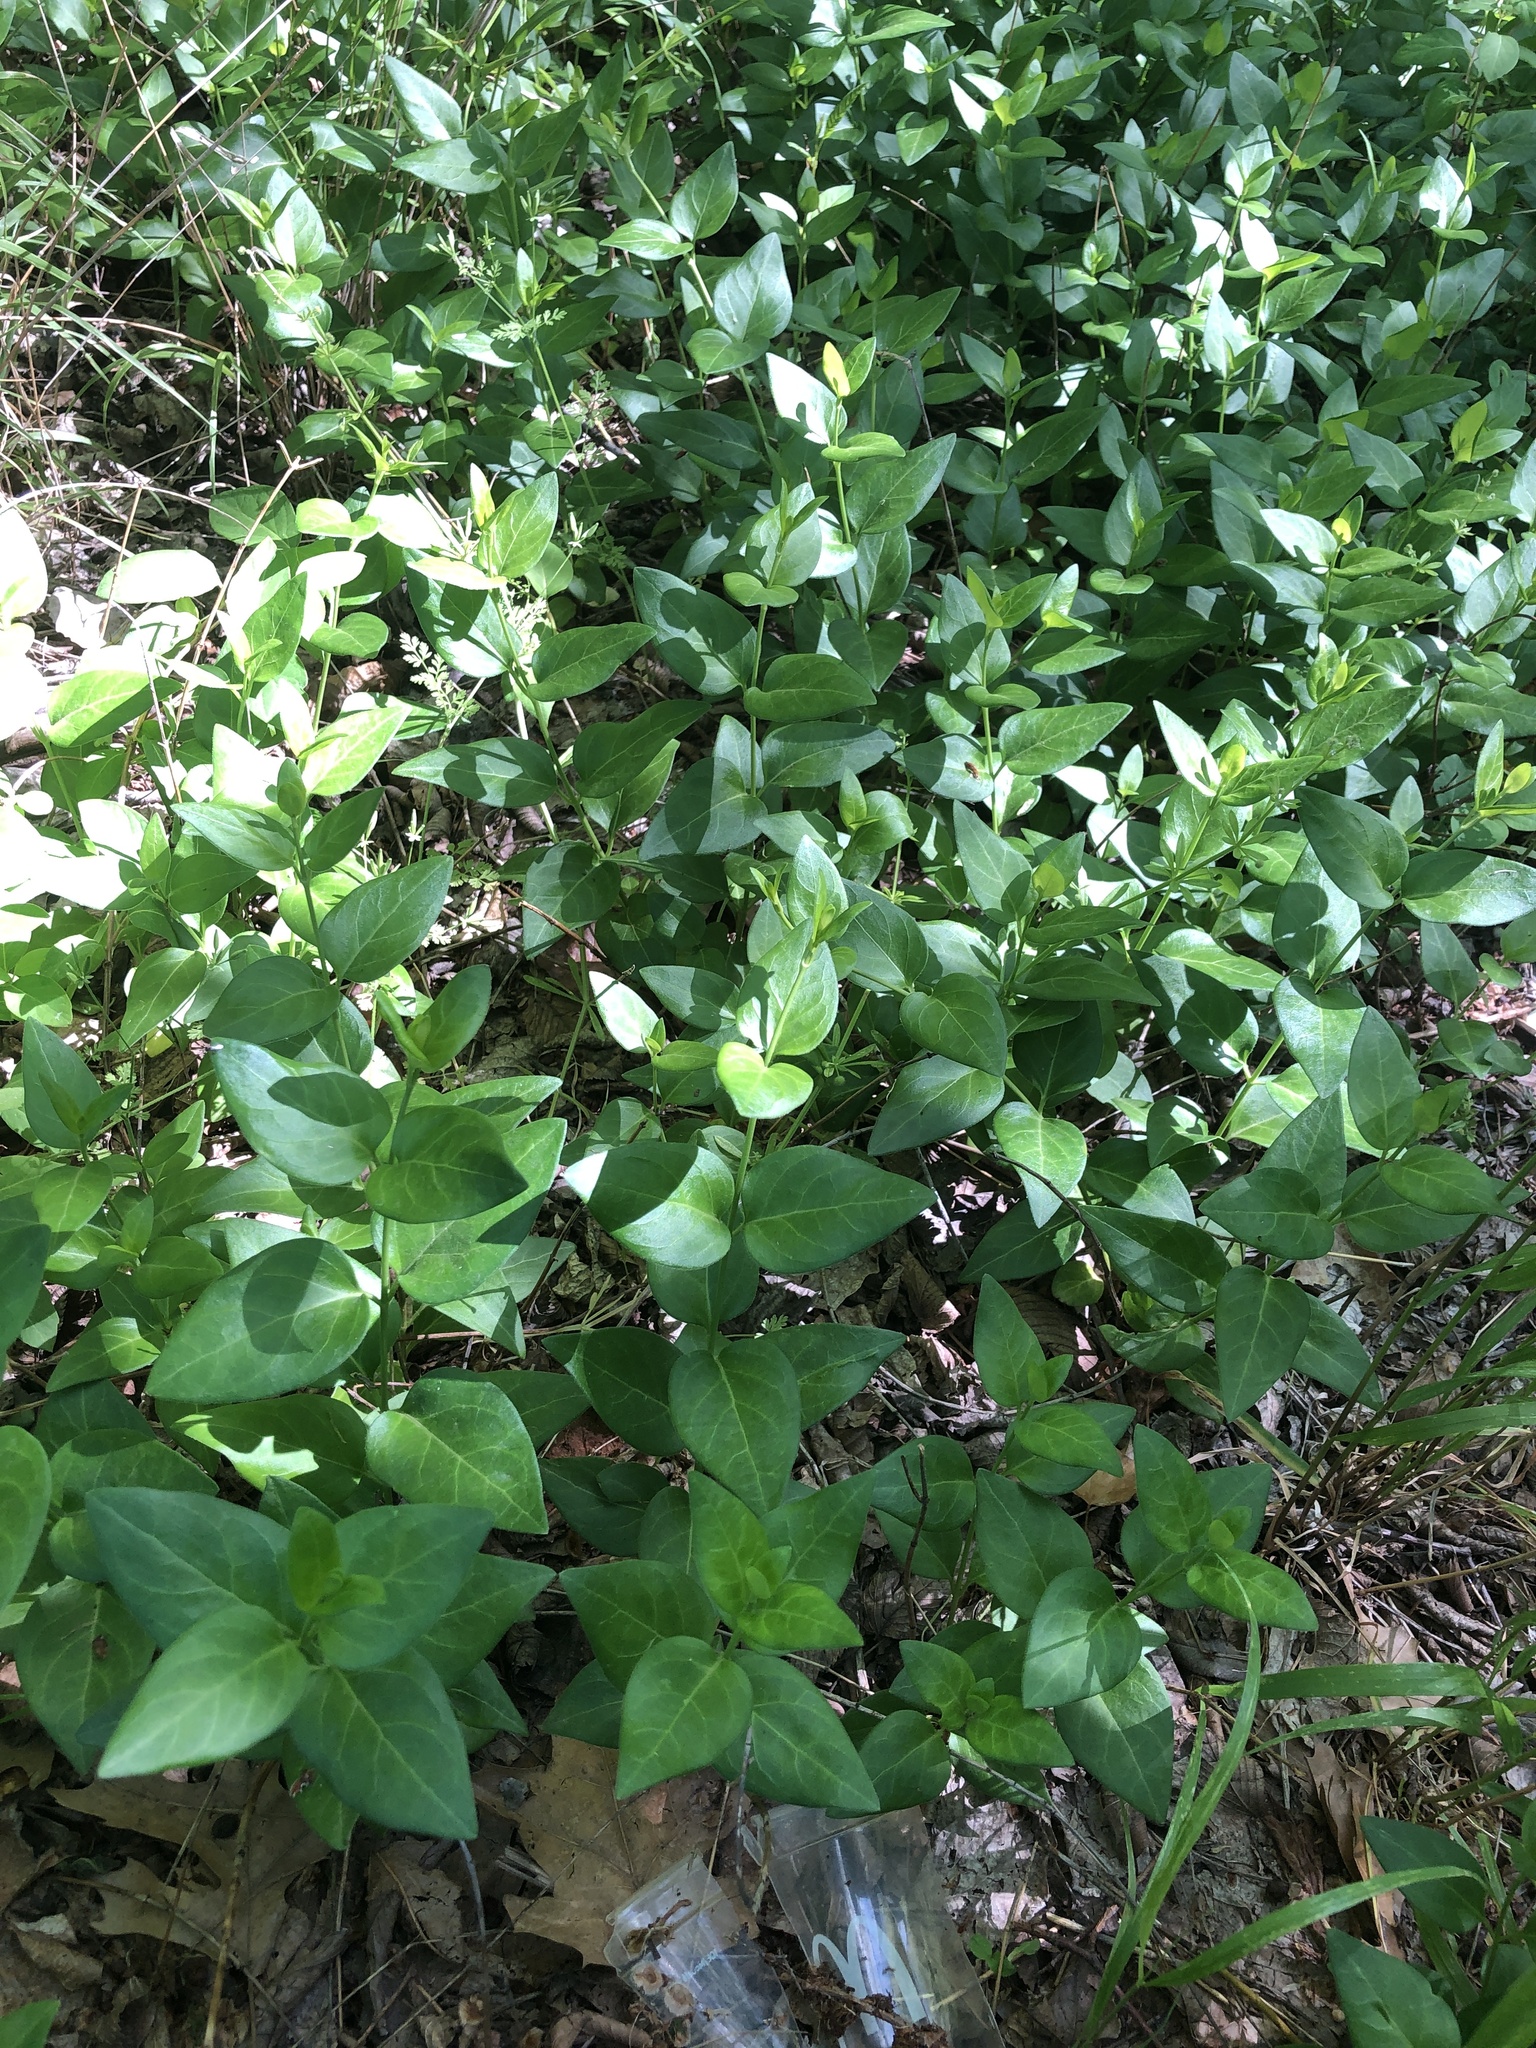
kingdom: Plantae
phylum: Tracheophyta
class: Magnoliopsida
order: Gentianales
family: Apocynaceae
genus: Vinca
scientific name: Vinca major
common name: Greater periwinkle
